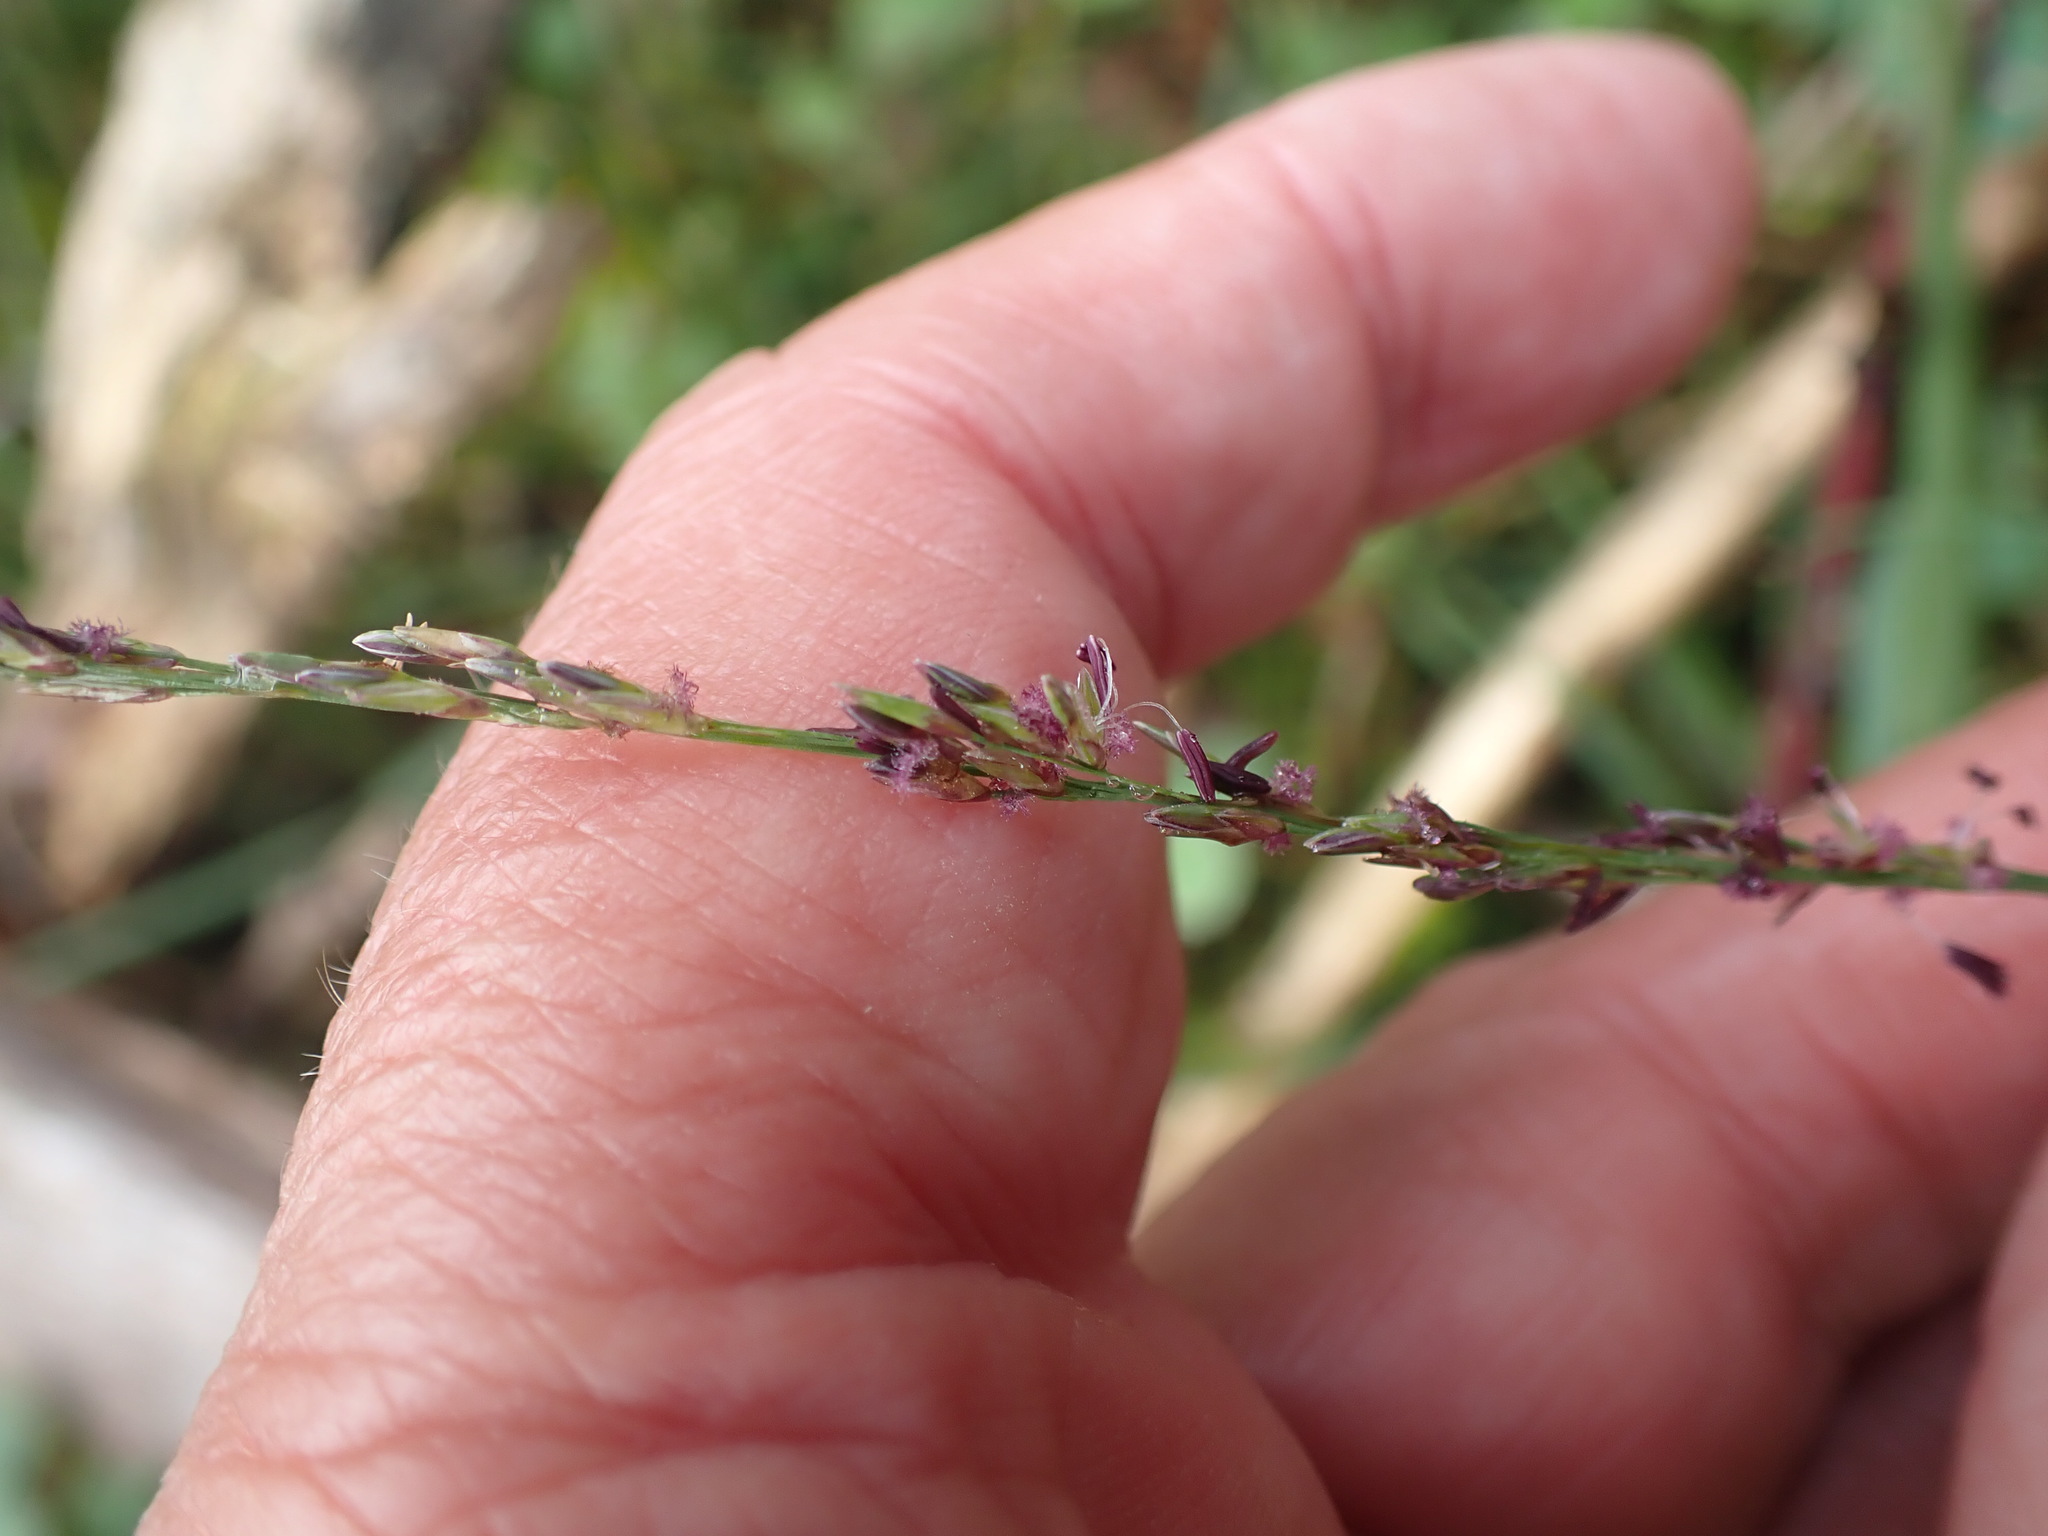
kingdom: Plantae
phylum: Tracheophyta
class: Liliopsida
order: Poales
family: Poaceae
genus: Molinia
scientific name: Molinia caerulea
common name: Purple moor-grass
